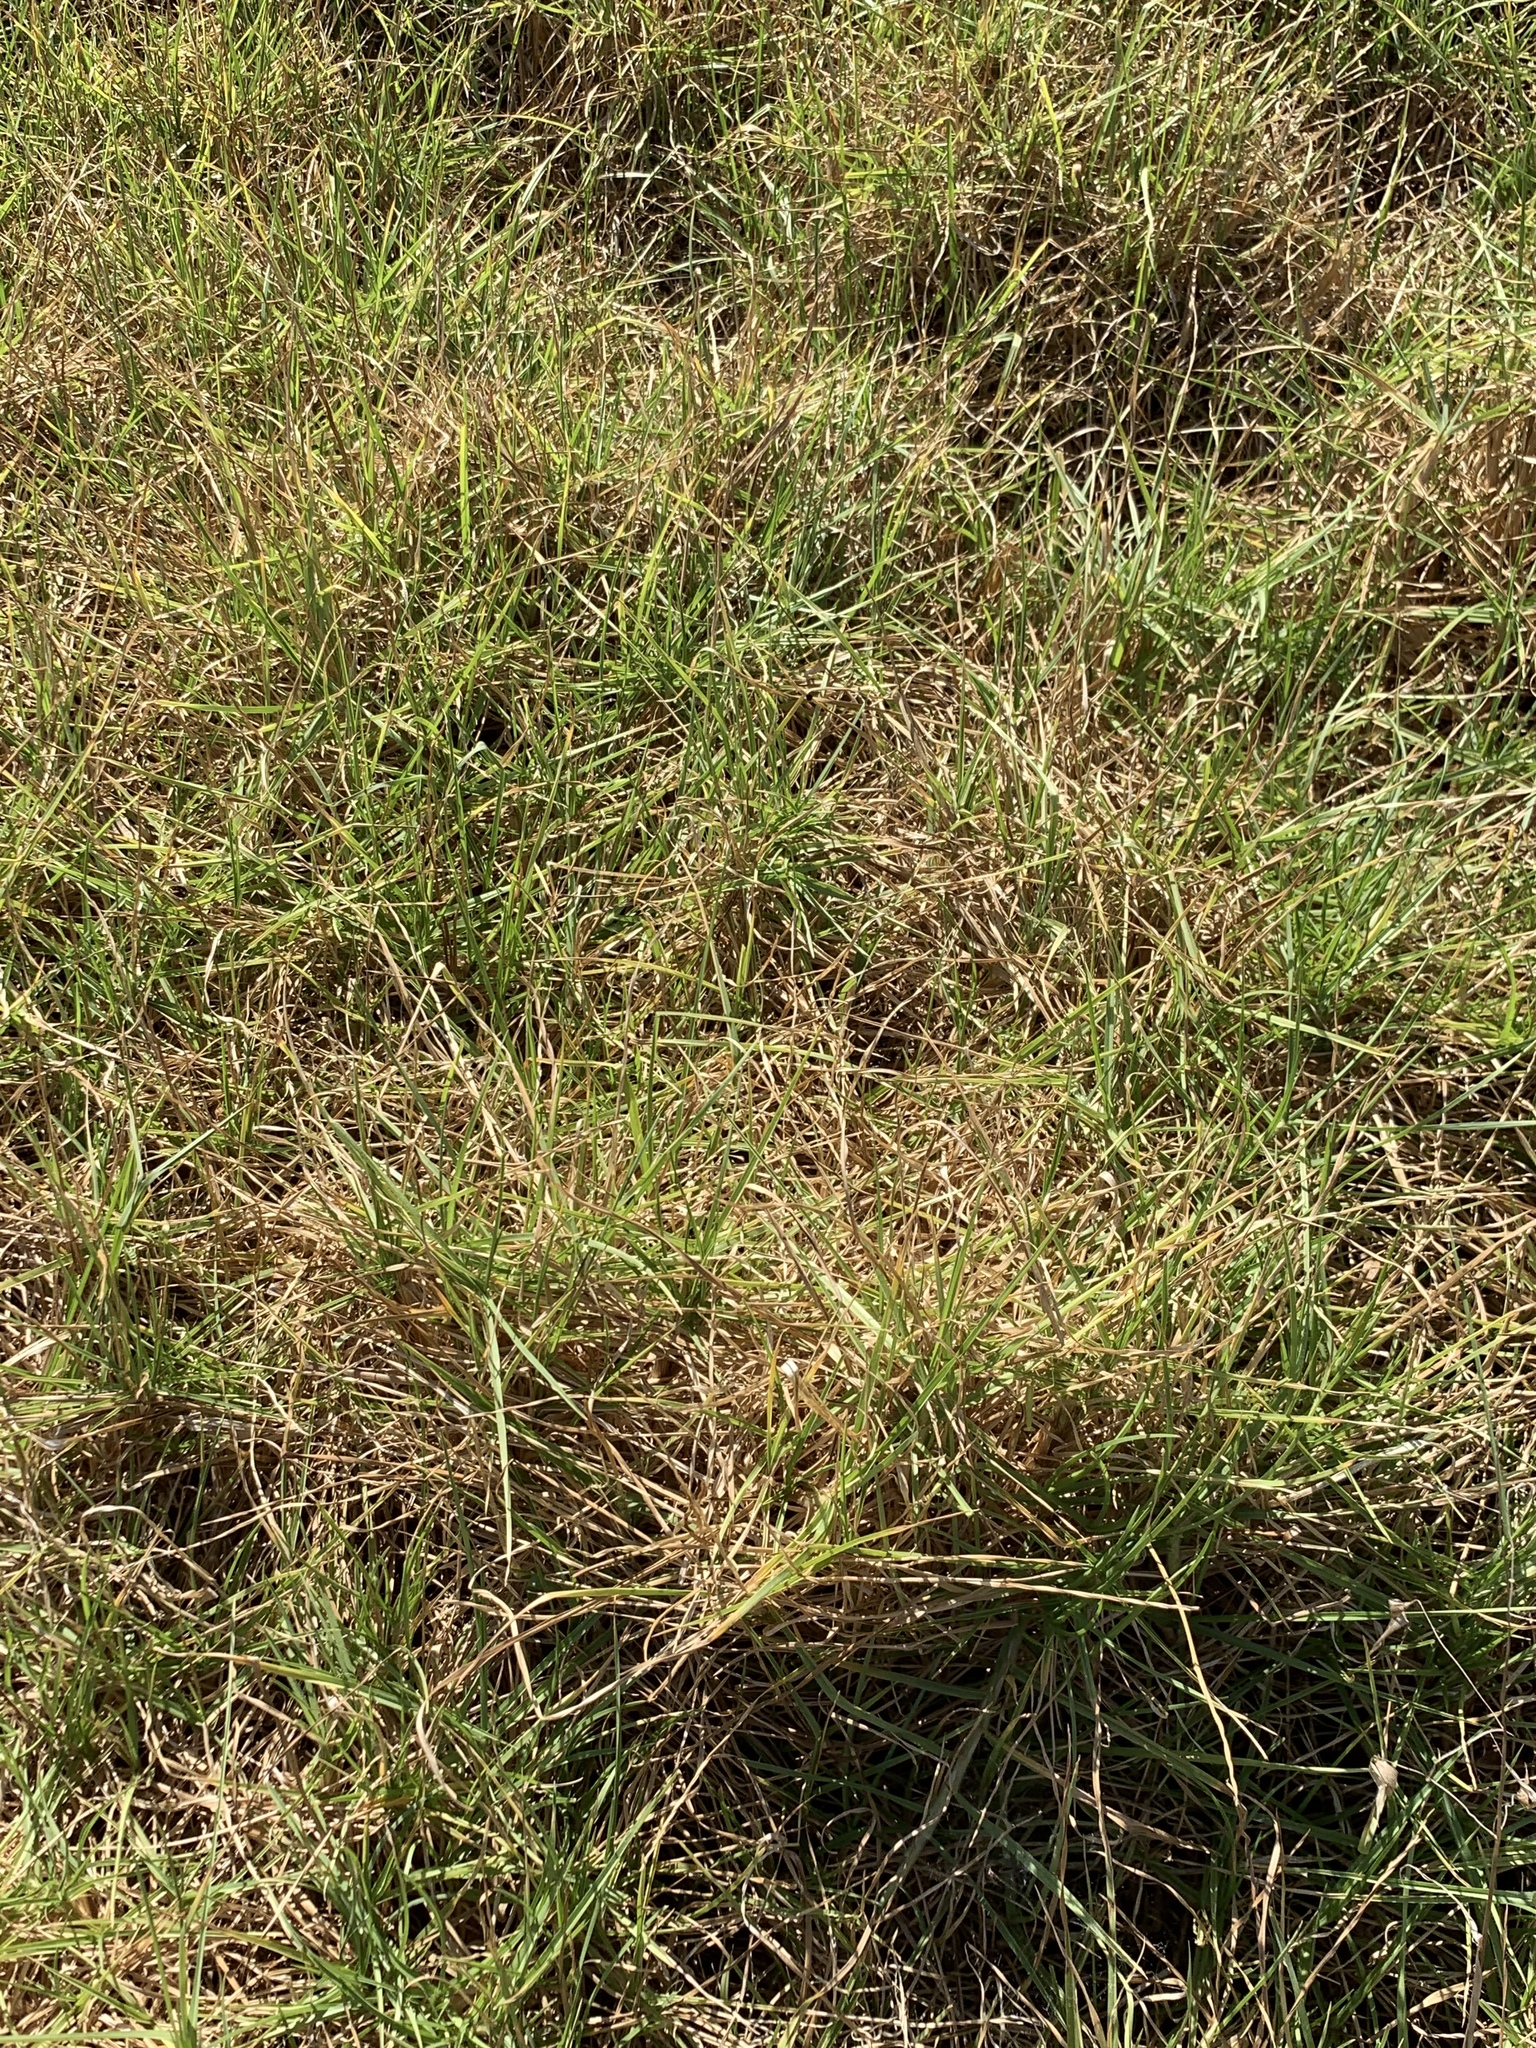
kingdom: Plantae
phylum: Tracheophyta
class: Liliopsida
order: Poales
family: Poaceae
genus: Cenchrus
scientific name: Cenchrus clandestinus
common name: Kikuyugrass
